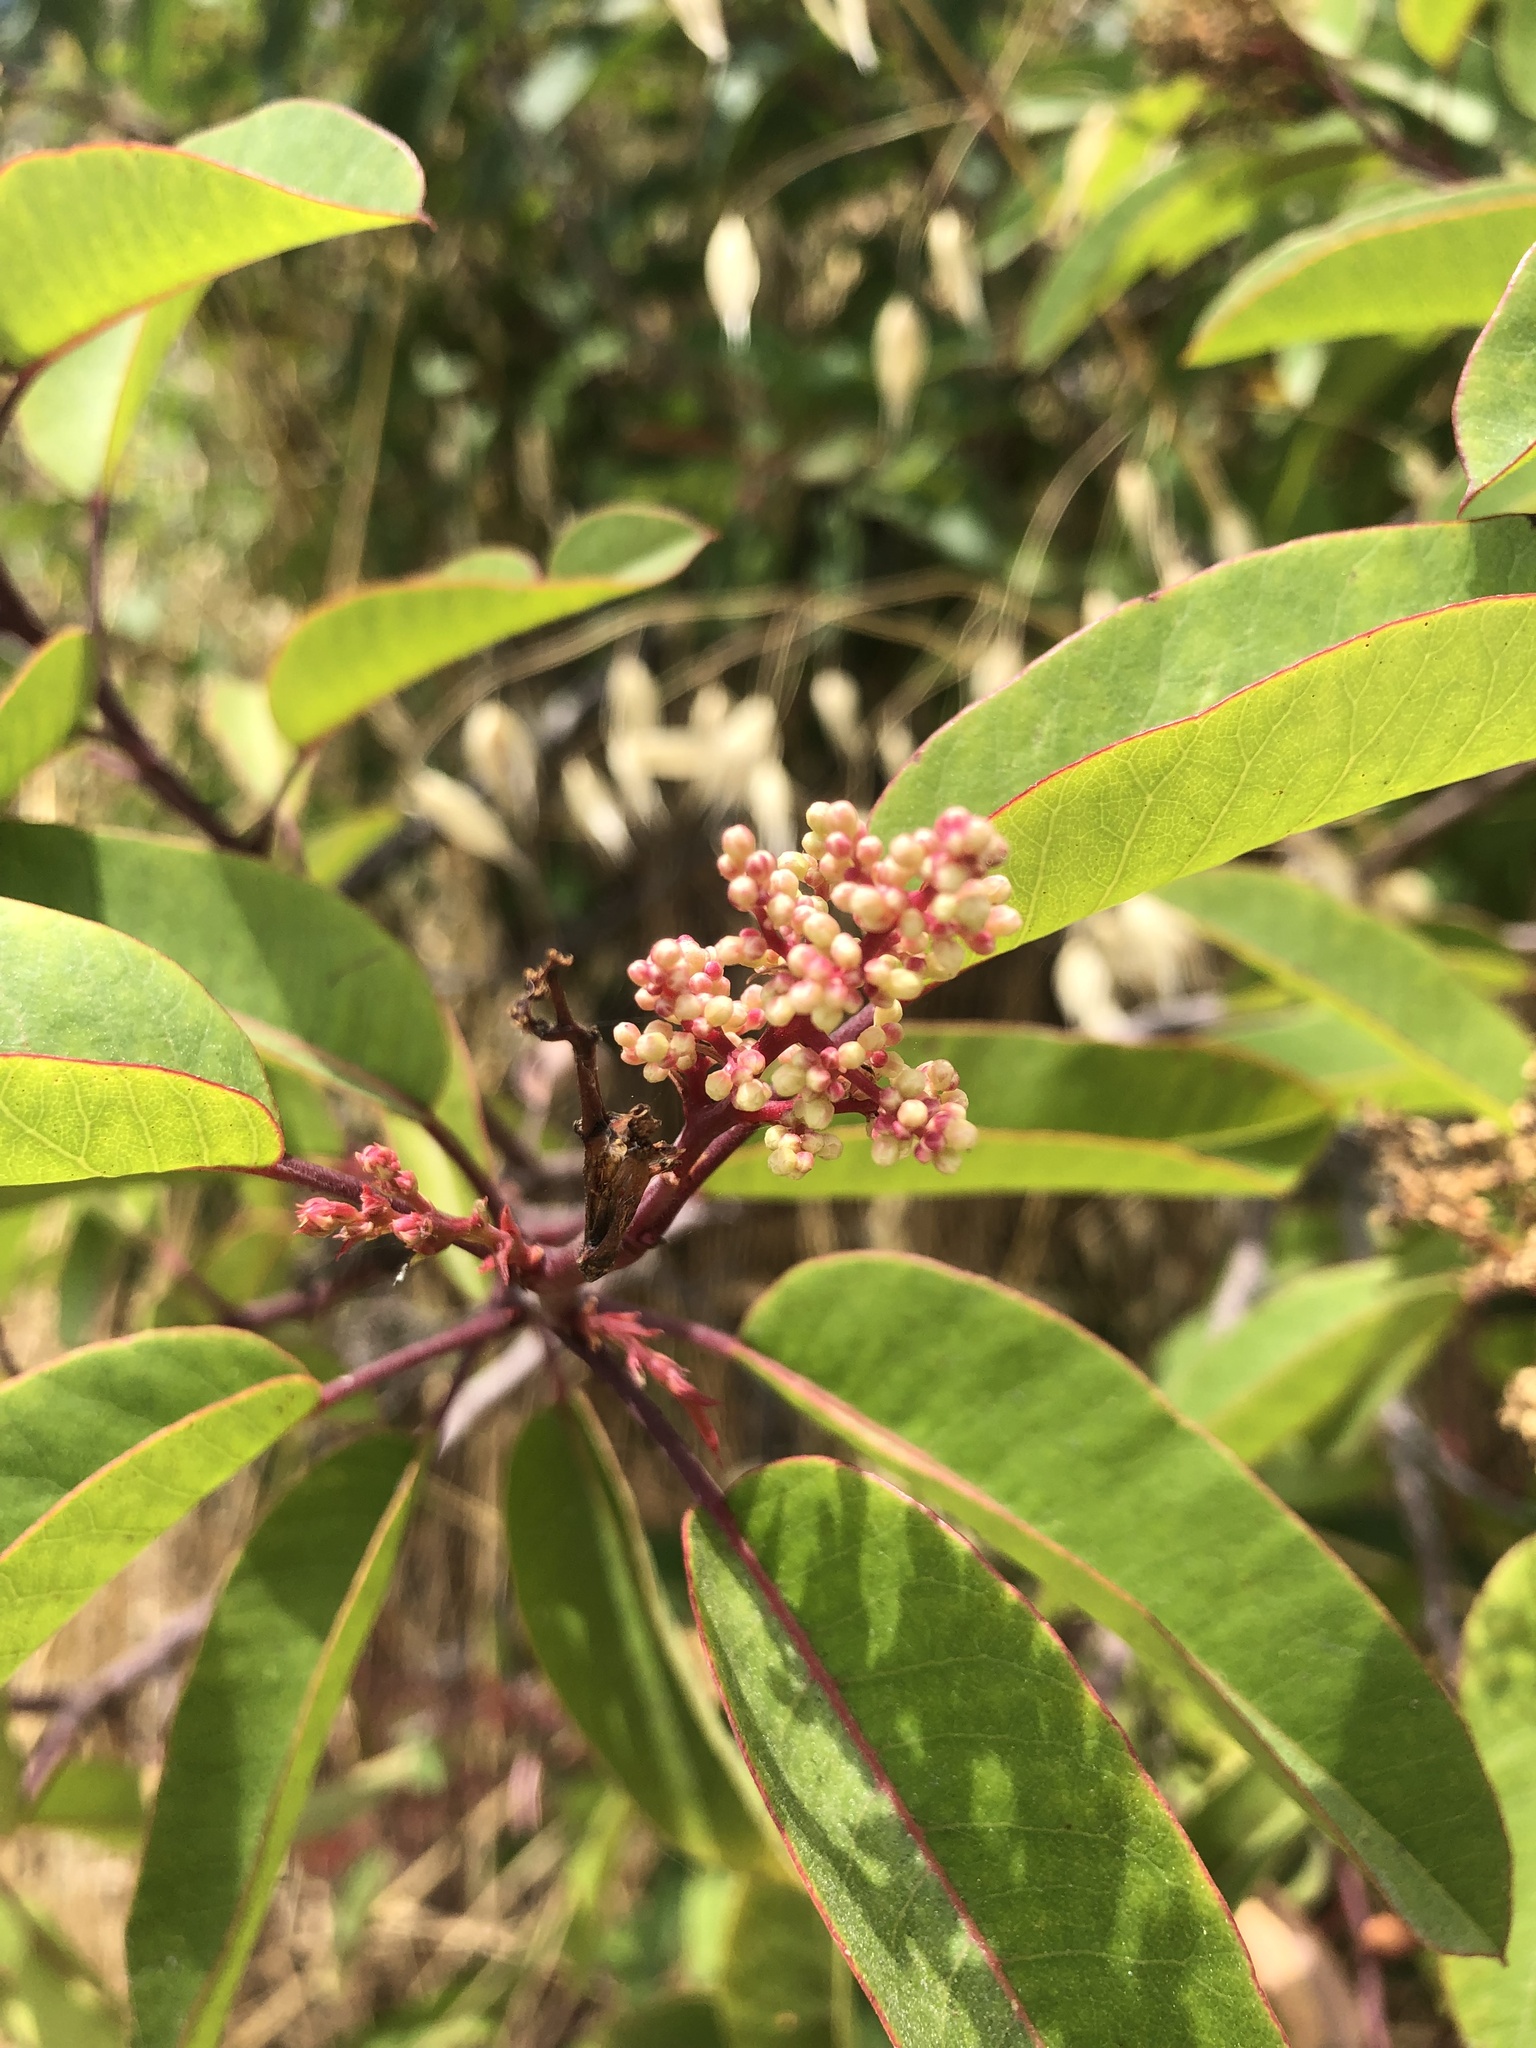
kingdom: Plantae
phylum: Tracheophyta
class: Magnoliopsida
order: Sapindales
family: Anacardiaceae
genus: Malosma
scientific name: Malosma laurina
